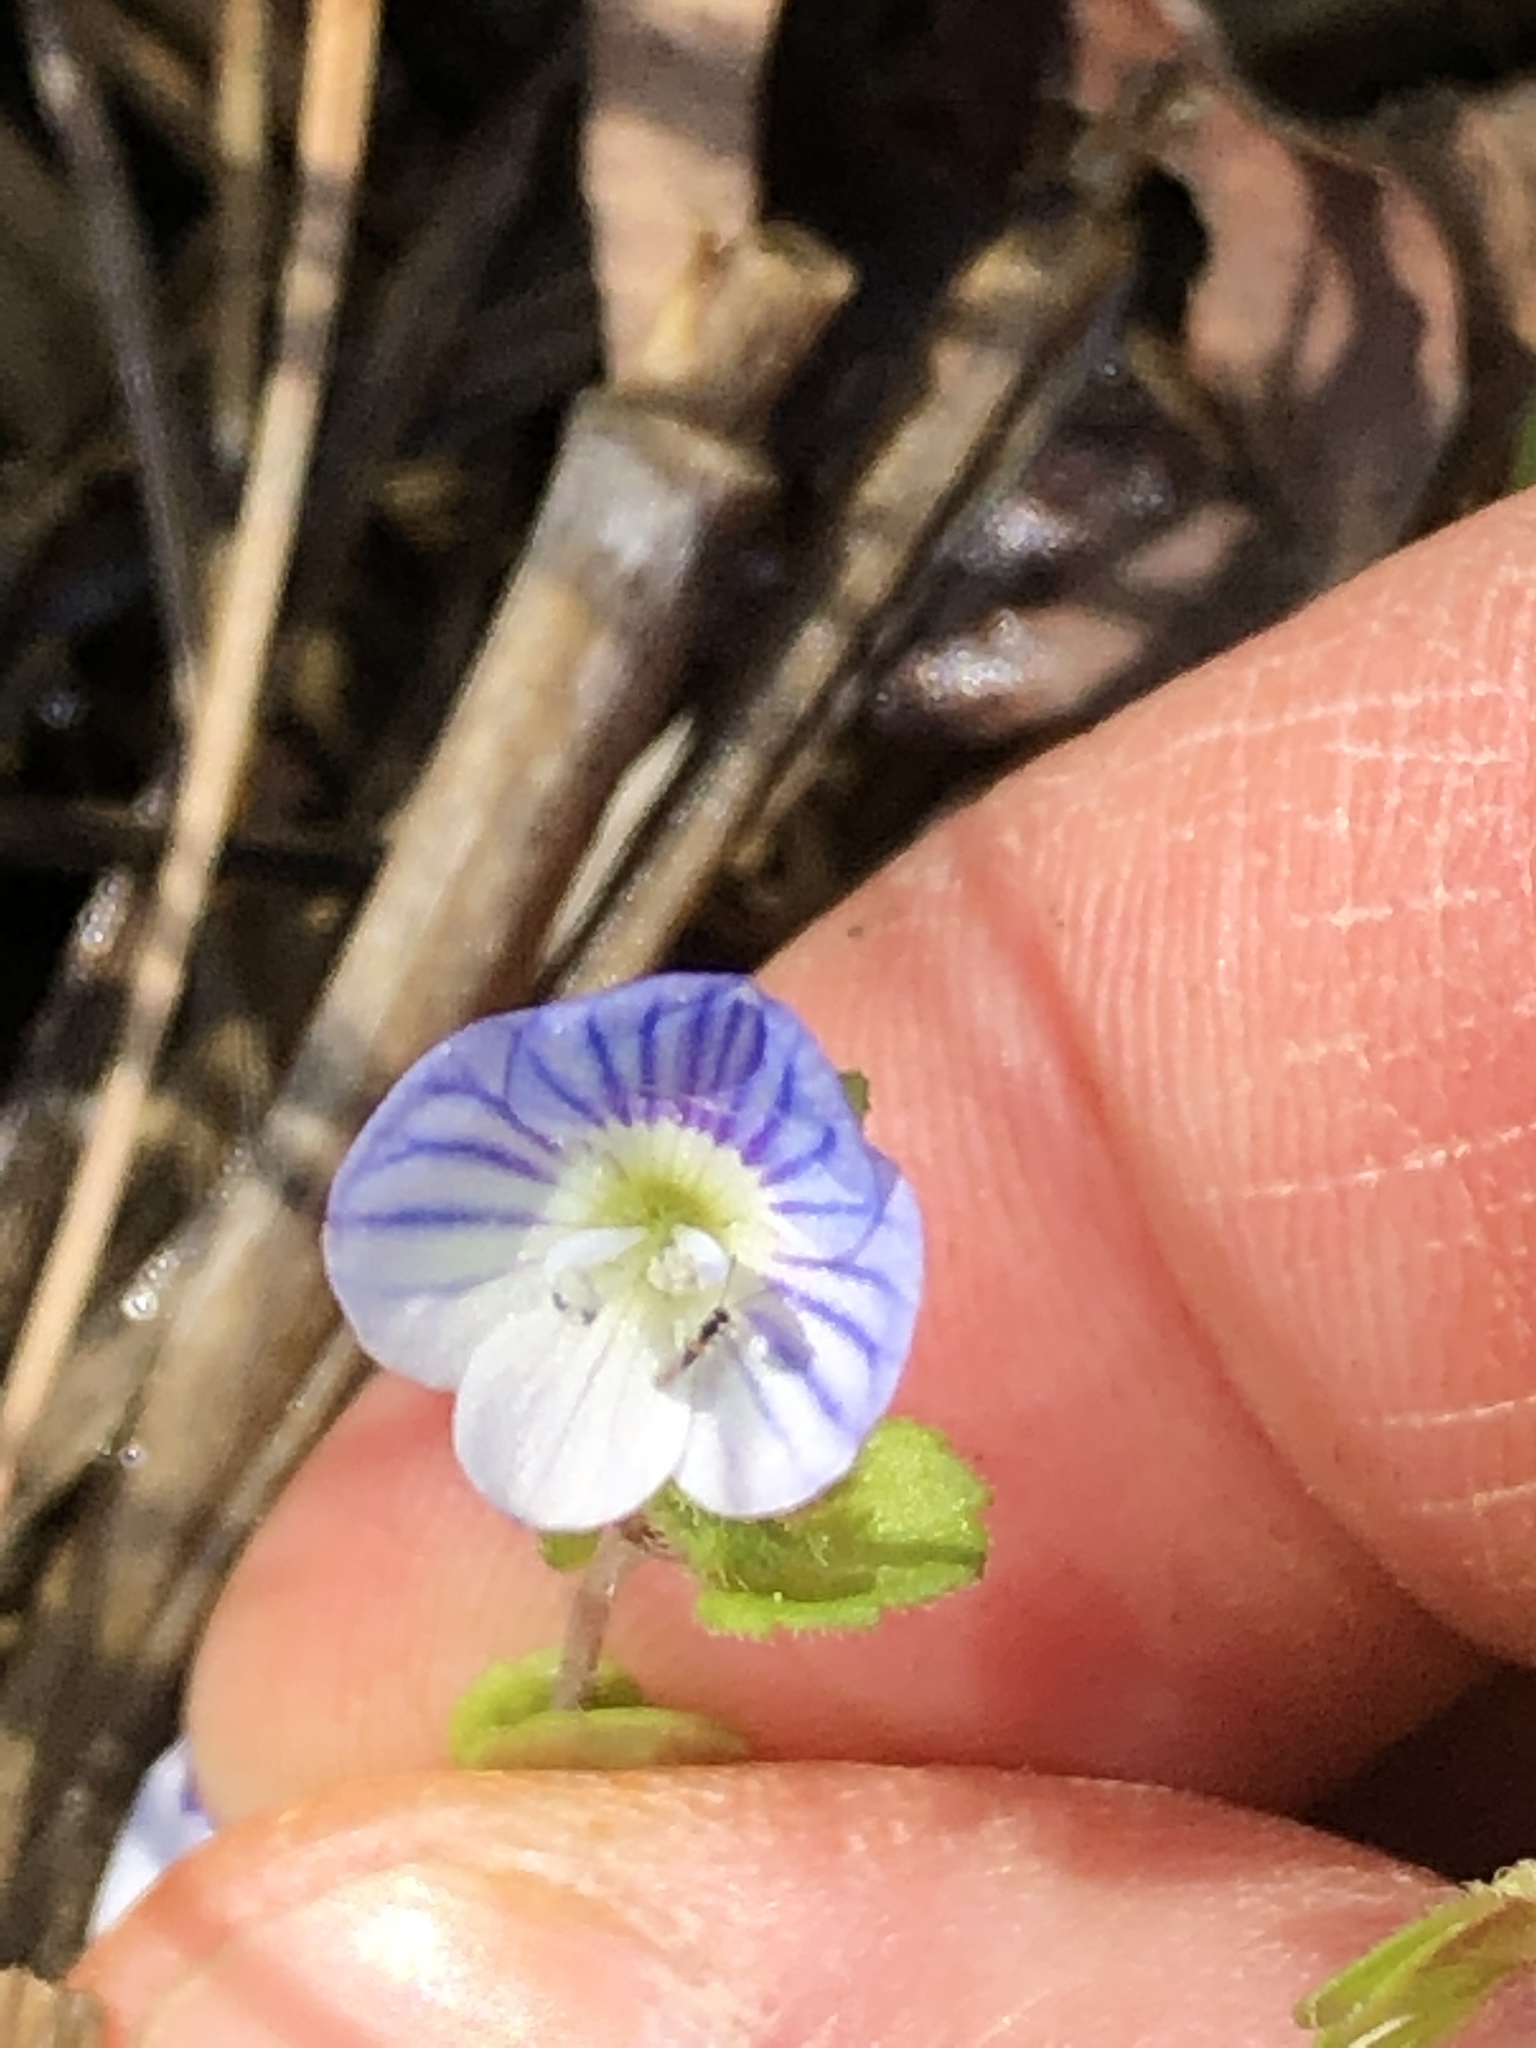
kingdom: Plantae
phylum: Tracheophyta
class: Magnoliopsida
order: Lamiales
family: Plantaginaceae
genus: Veronica
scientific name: Veronica persica
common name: Common field-speedwell
